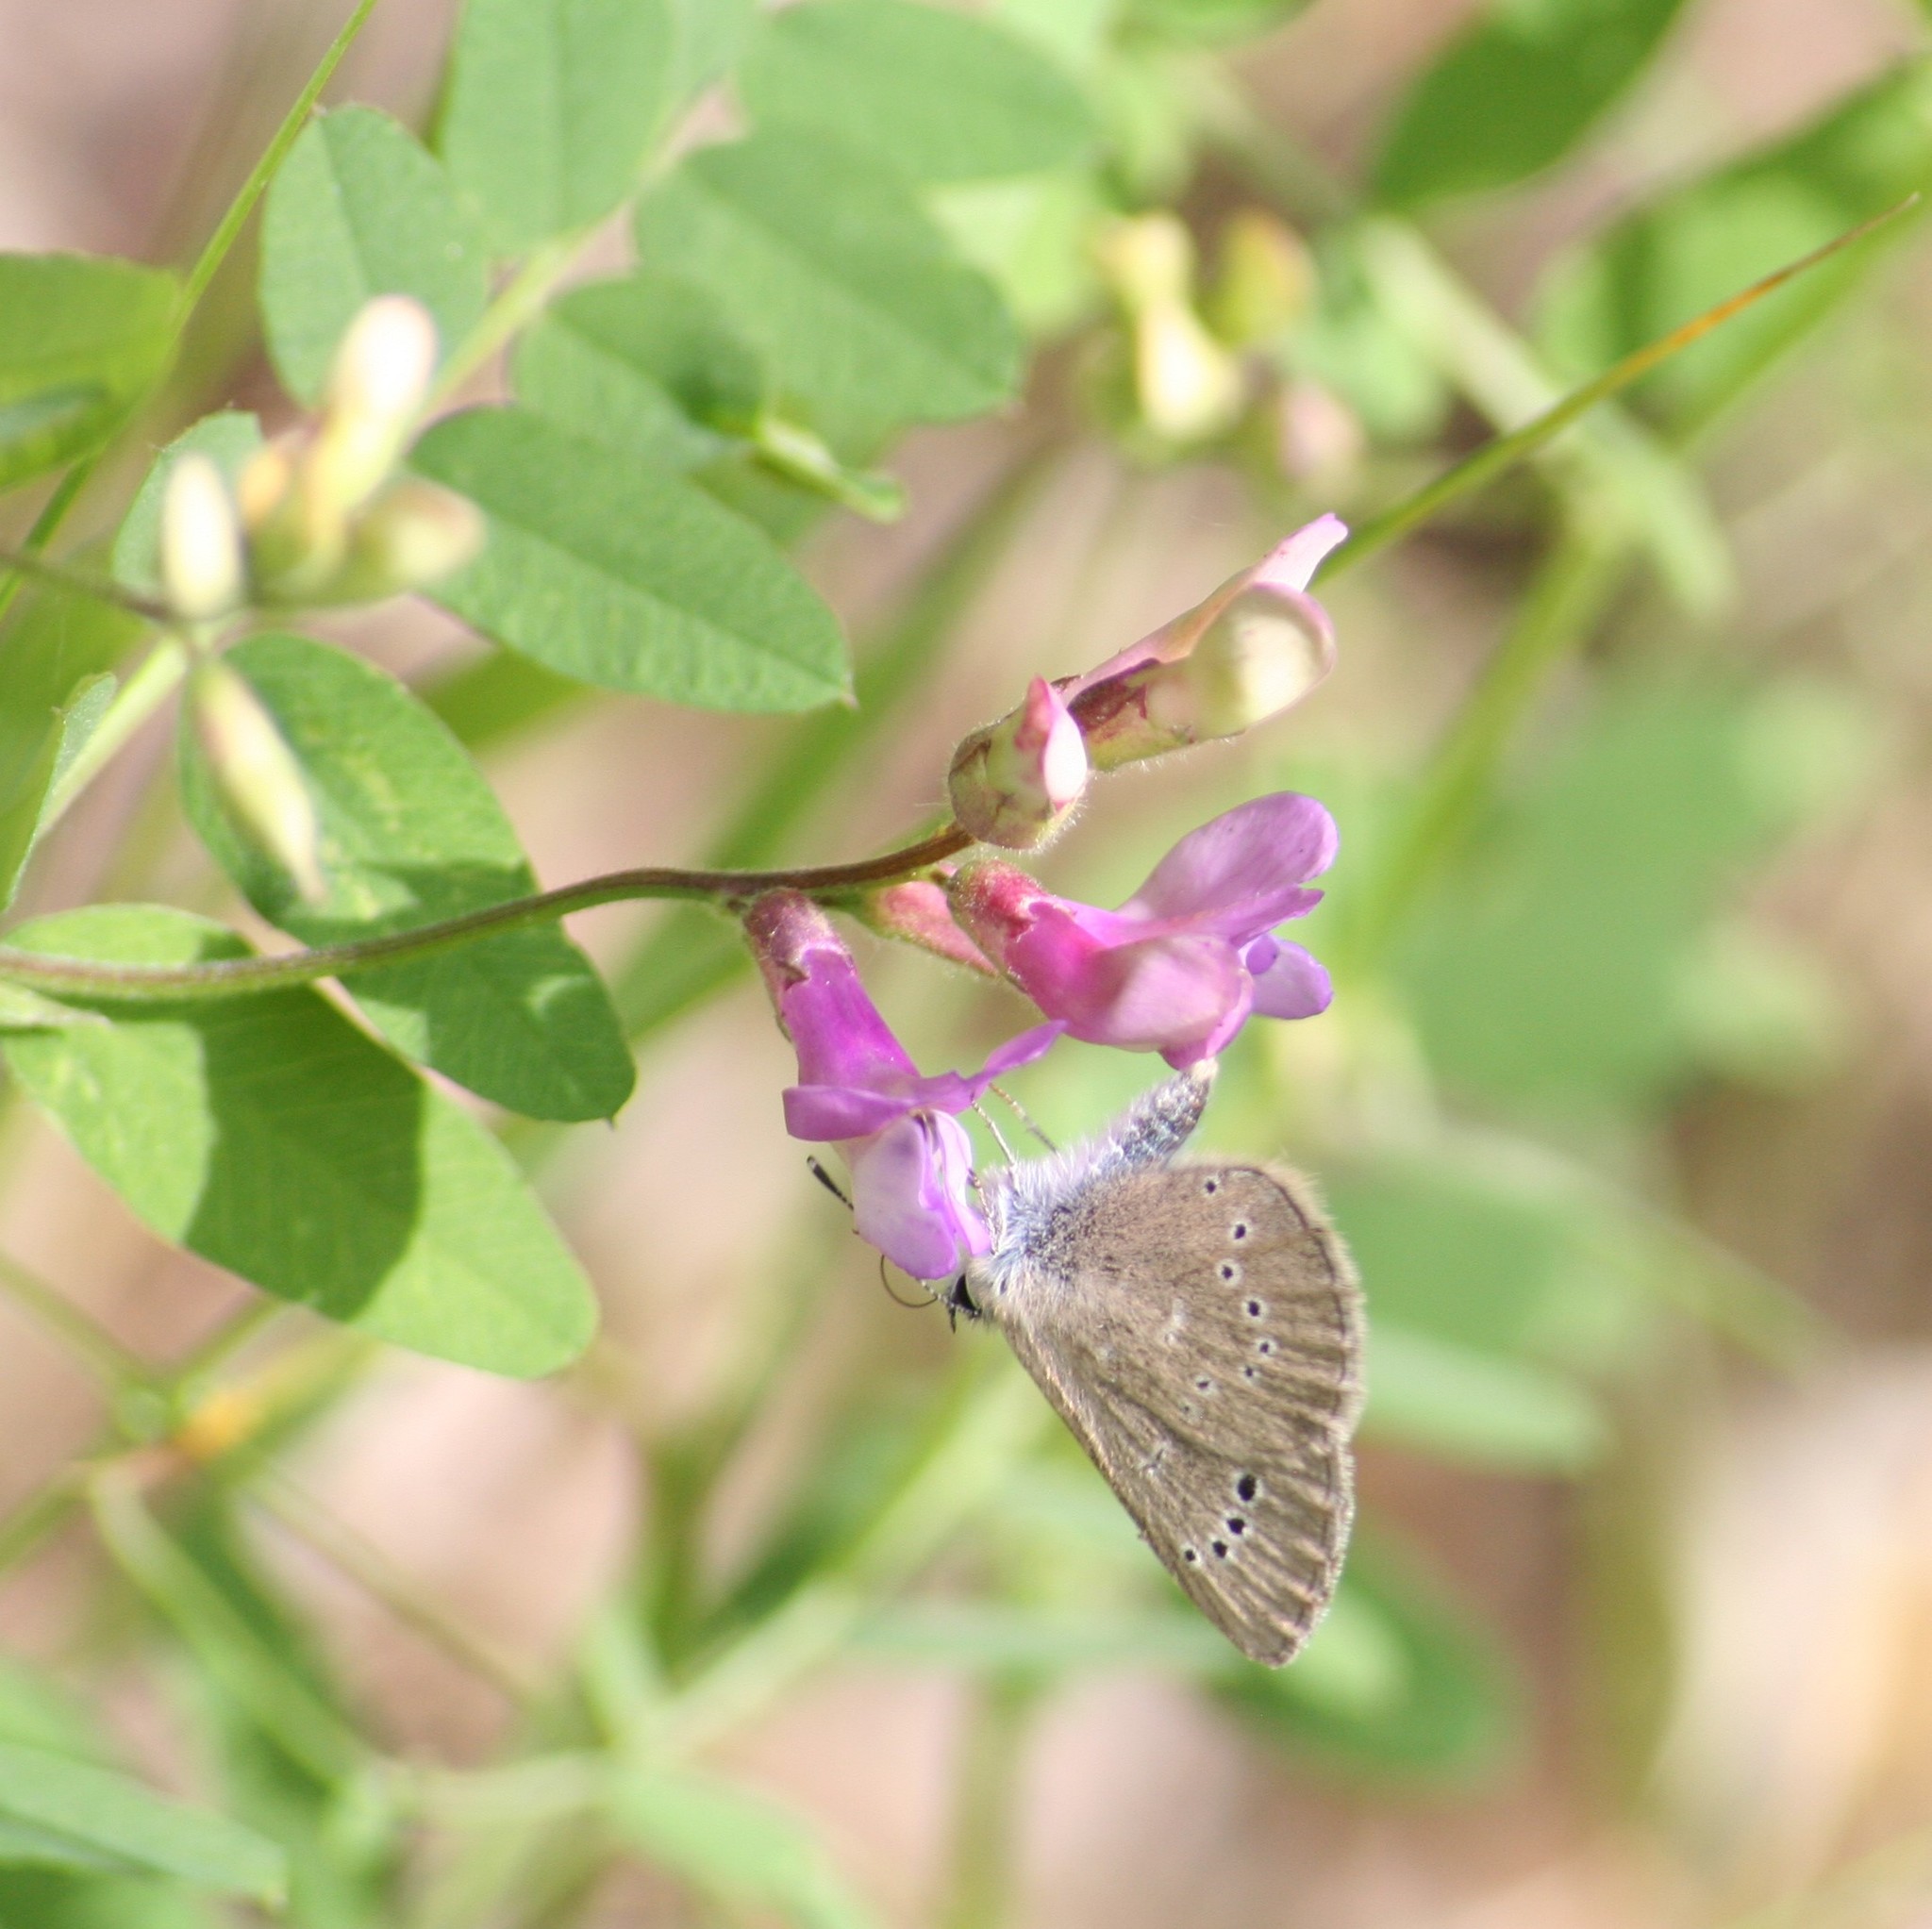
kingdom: Animalia
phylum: Arthropoda
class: Insecta
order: Lepidoptera
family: Lycaenidae
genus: Glaucopsyche
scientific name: Glaucopsyche lygdamus
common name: Silvery blue
